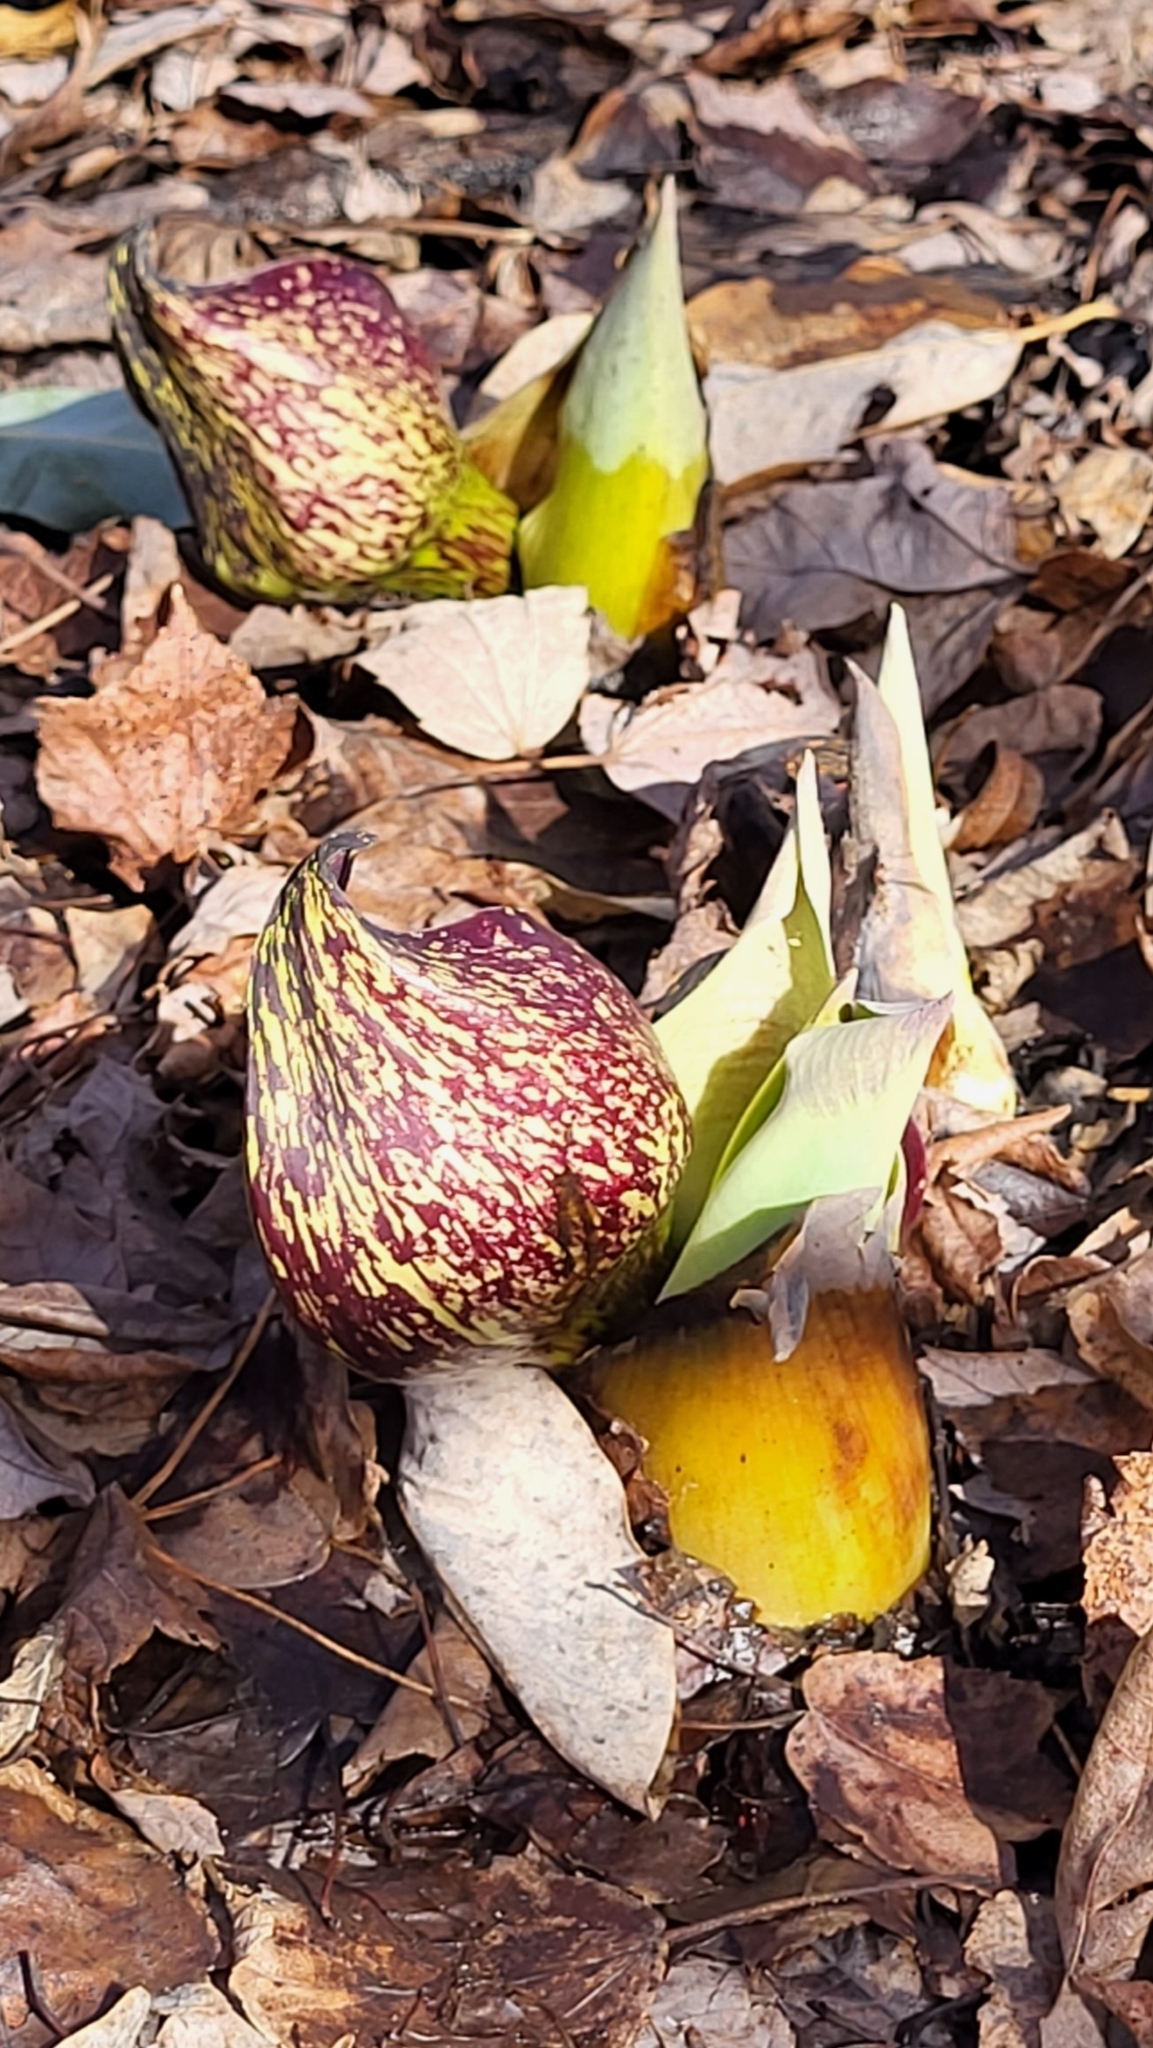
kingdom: Plantae
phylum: Tracheophyta
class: Liliopsida
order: Alismatales
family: Araceae
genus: Symplocarpus
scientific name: Symplocarpus foetidus
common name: Eastern skunk cabbage
